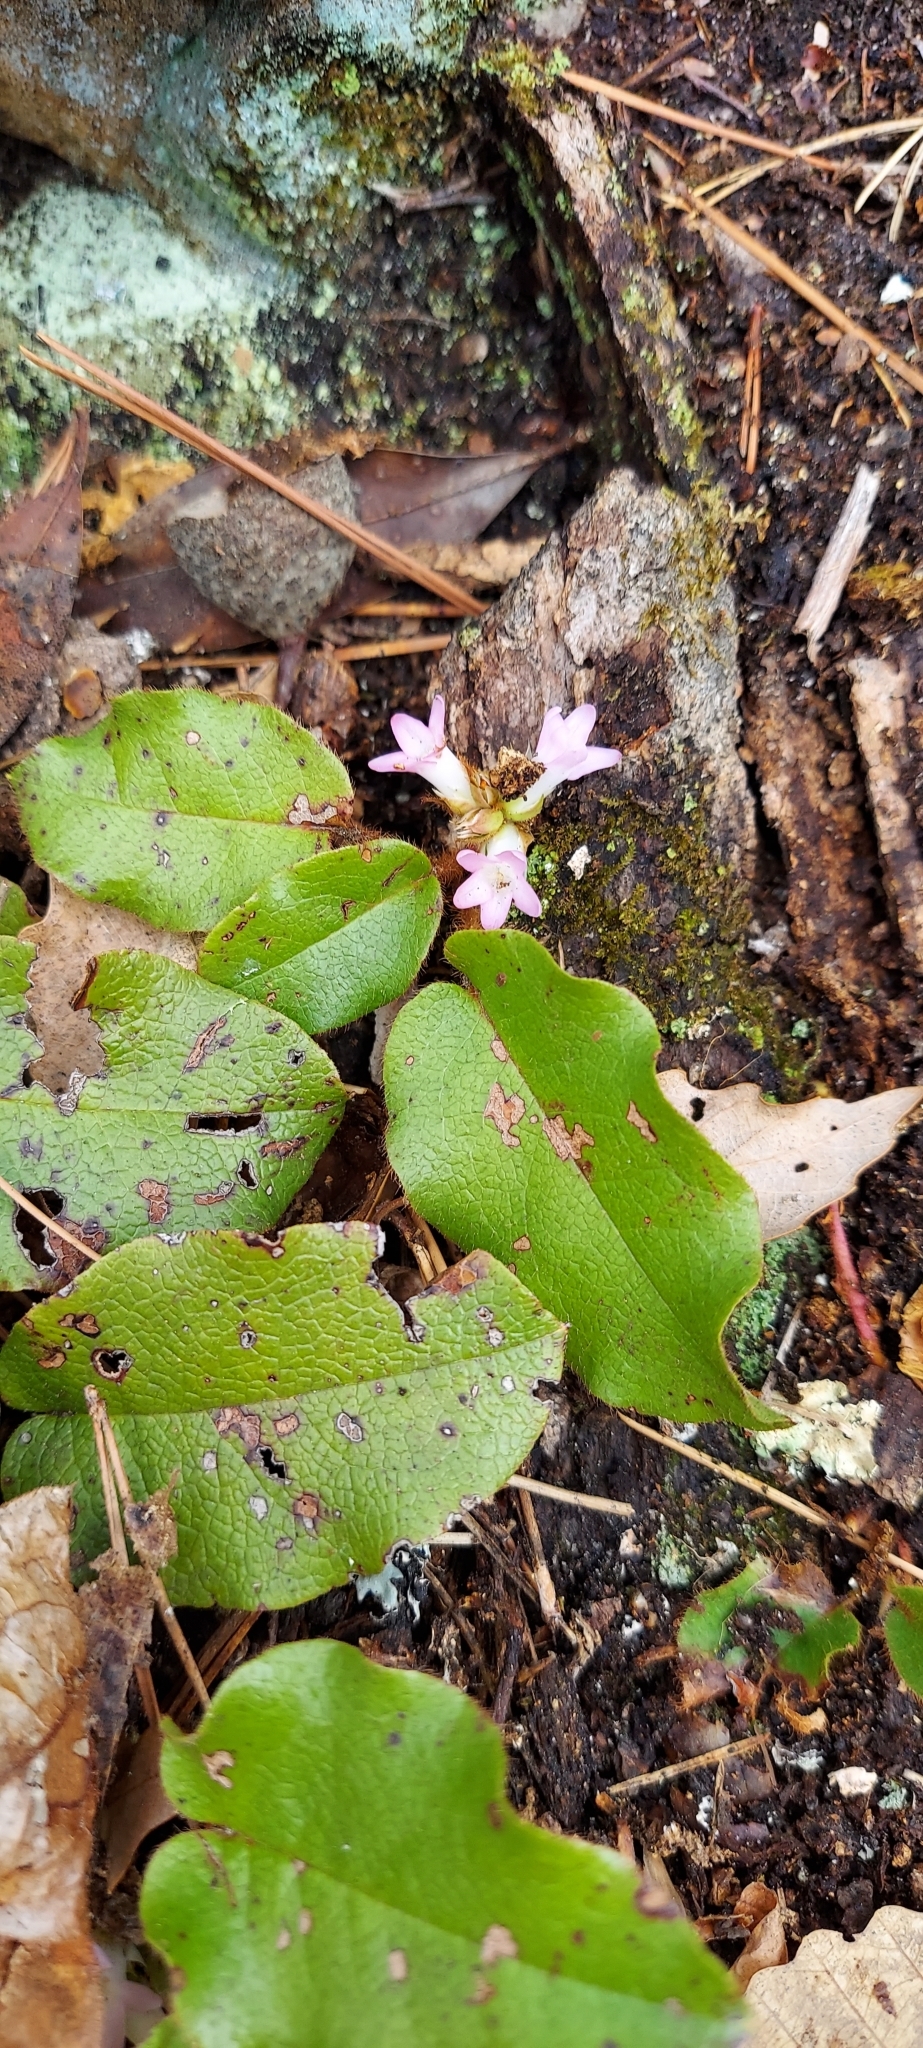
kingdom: Plantae
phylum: Tracheophyta
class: Magnoliopsida
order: Ericales
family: Ericaceae
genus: Epigaea
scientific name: Epigaea repens
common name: Gravelroot
